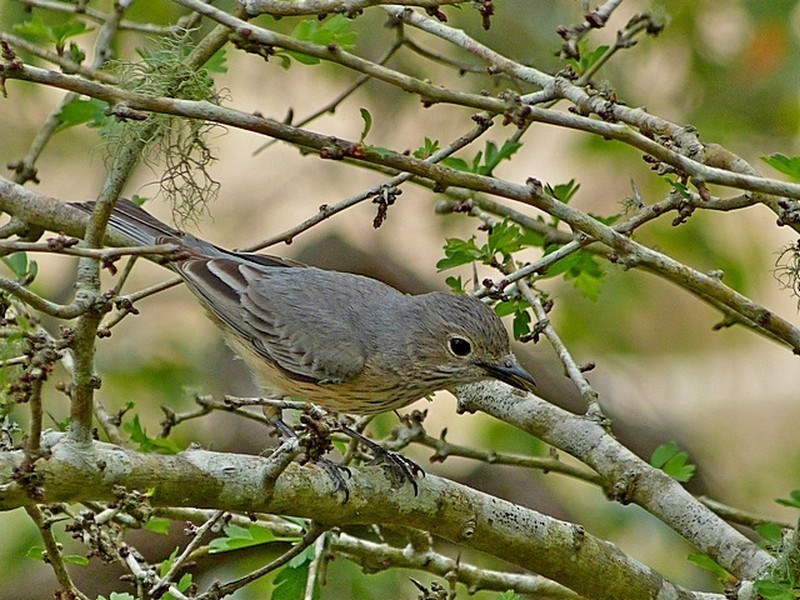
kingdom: Animalia
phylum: Chordata
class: Aves
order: Passeriformes
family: Pachycephalidae
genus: Pachycephala
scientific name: Pachycephala rufiventris
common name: Rufous whistler
